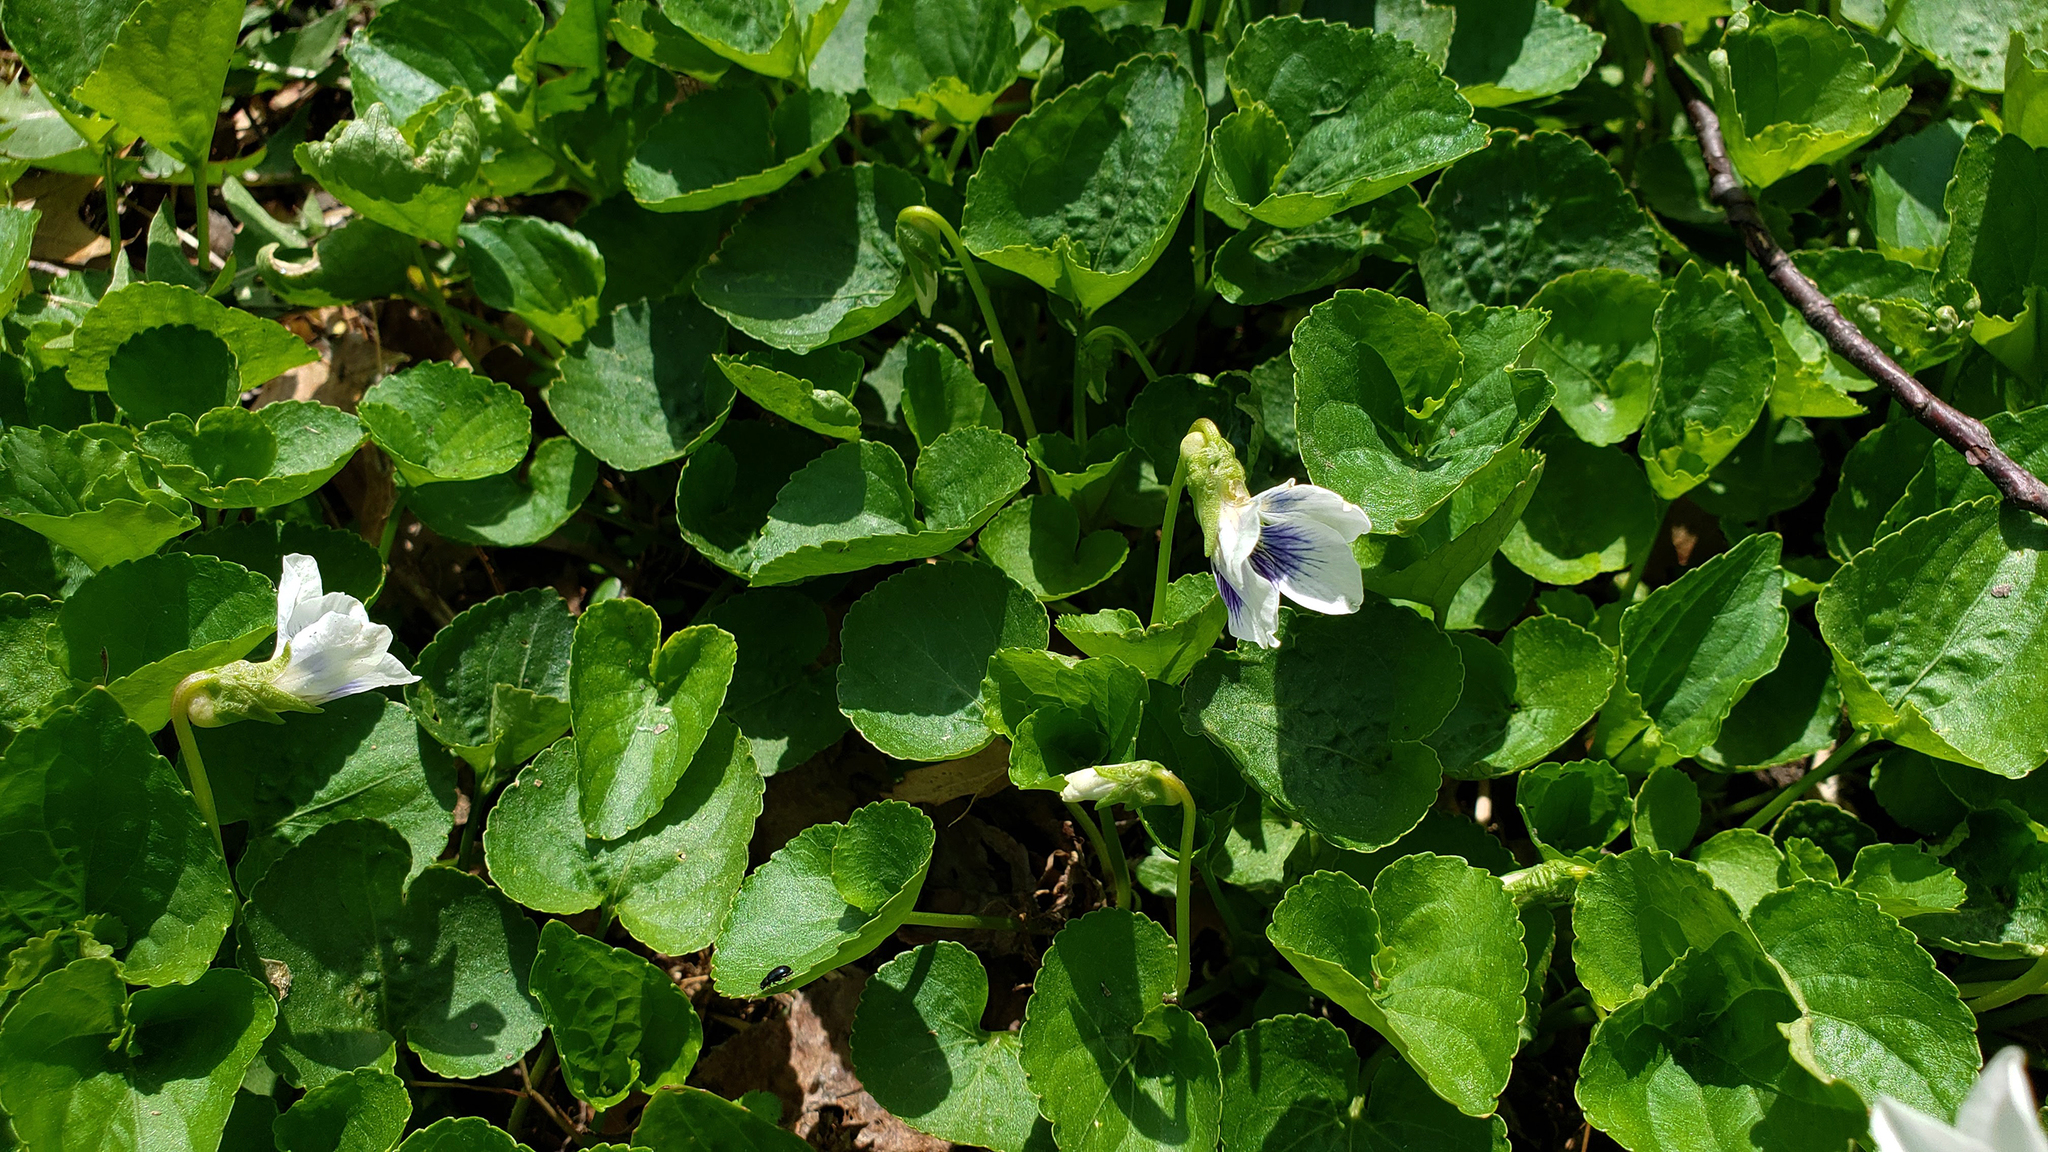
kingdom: Plantae
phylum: Tracheophyta
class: Magnoliopsida
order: Malpighiales
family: Violaceae
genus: Viola
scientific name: Viola sororia
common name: Dooryard violet
